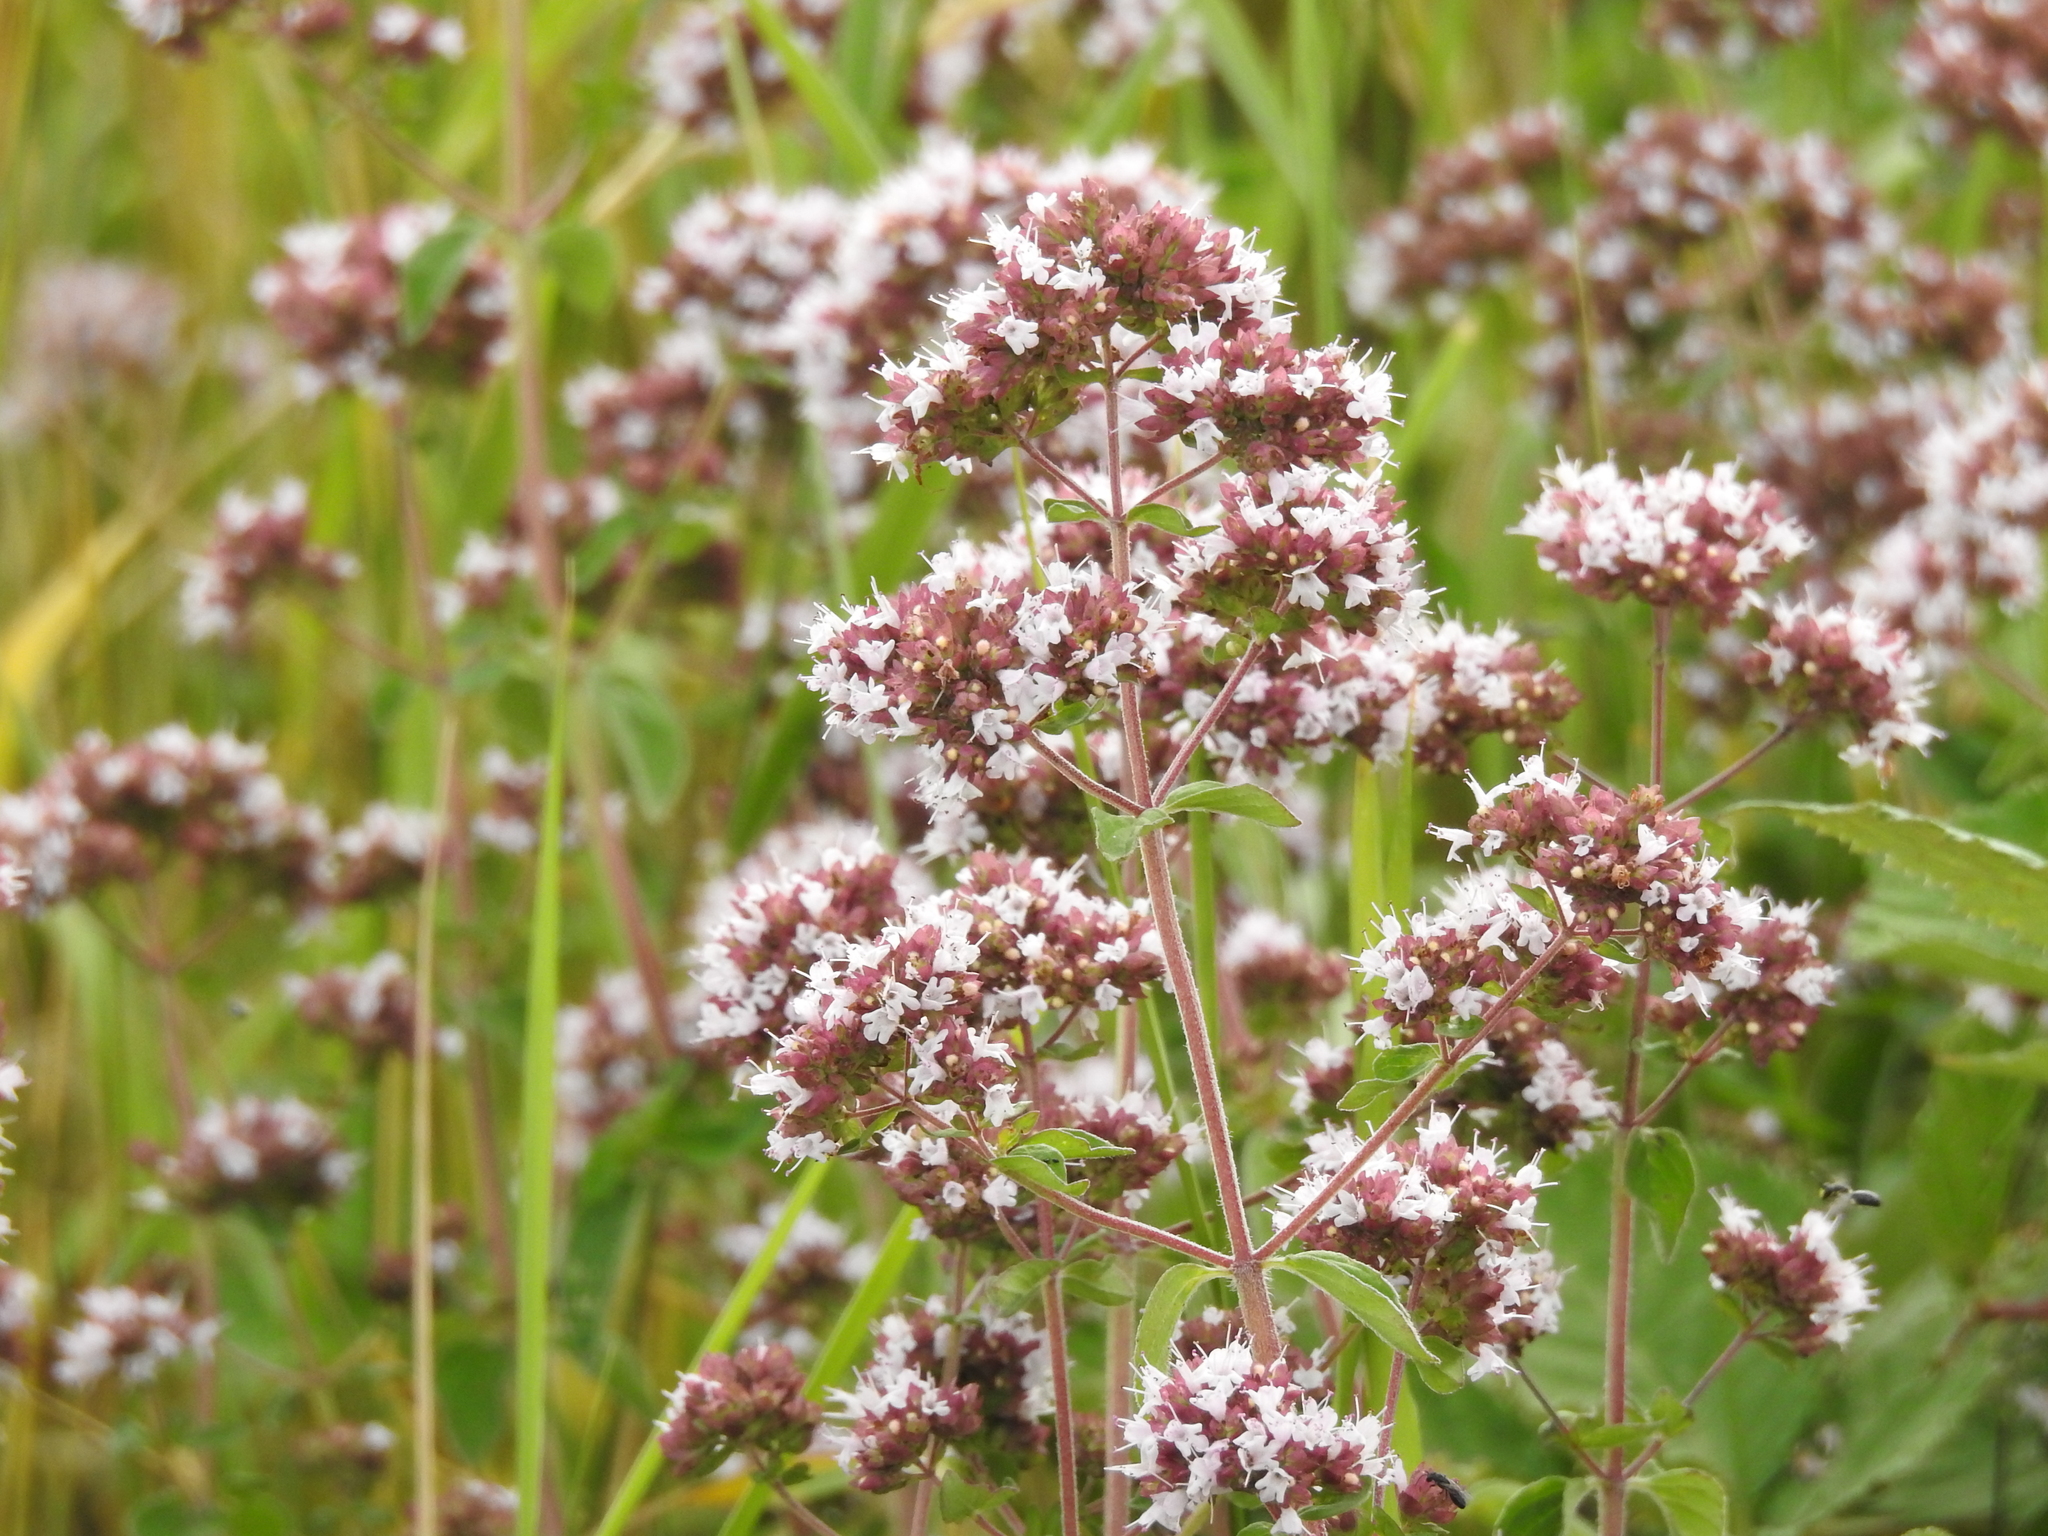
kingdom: Plantae
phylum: Tracheophyta
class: Magnoliopsida
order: Lamiales
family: Lamiaceae
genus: Origanum
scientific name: Origanum vulgare
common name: Wild marjoram
